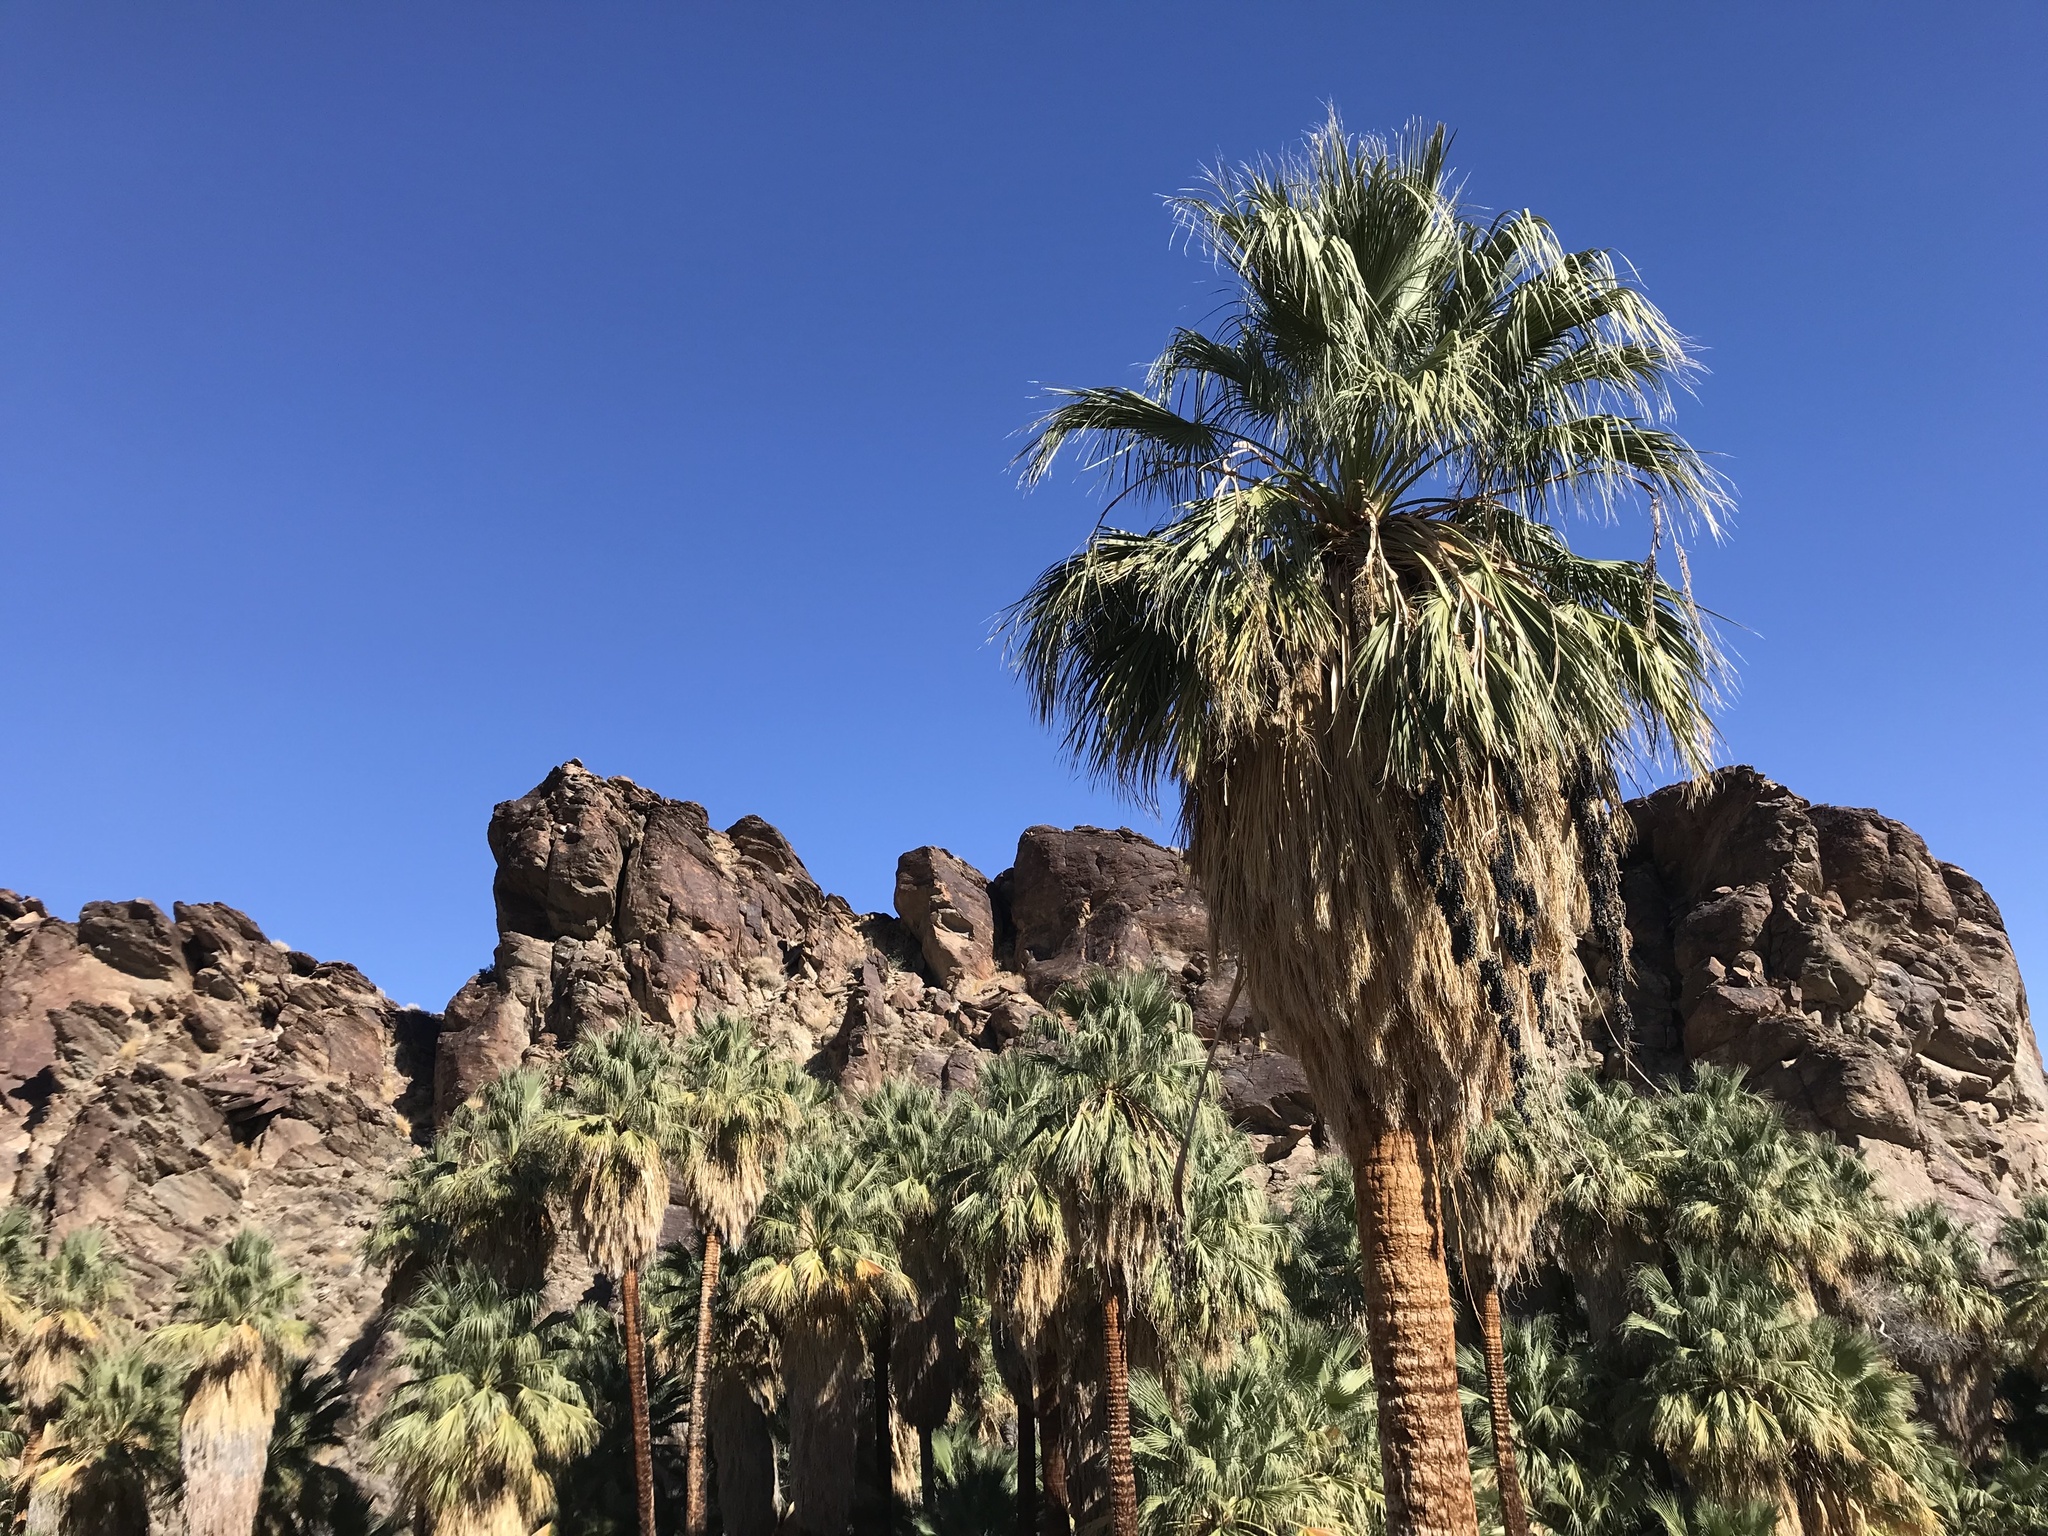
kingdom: Plantae
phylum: Tracheophyta
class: Liliopsida
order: Arecales
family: Arecaceae
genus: Washingtonia
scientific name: Washingtonia filifera
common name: California fan palm
